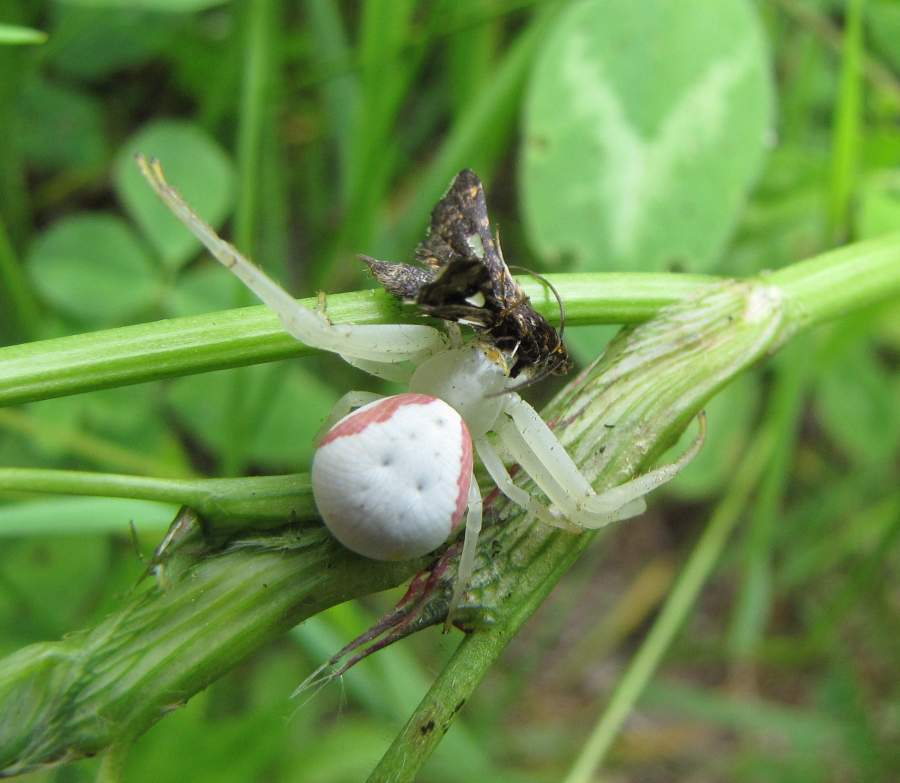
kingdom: Animalia
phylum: Arthropoda
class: Arachnida
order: Araneae
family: Thomisidae
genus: Misumena
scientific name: Misumena vatia
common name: Goldenrod crab spider
